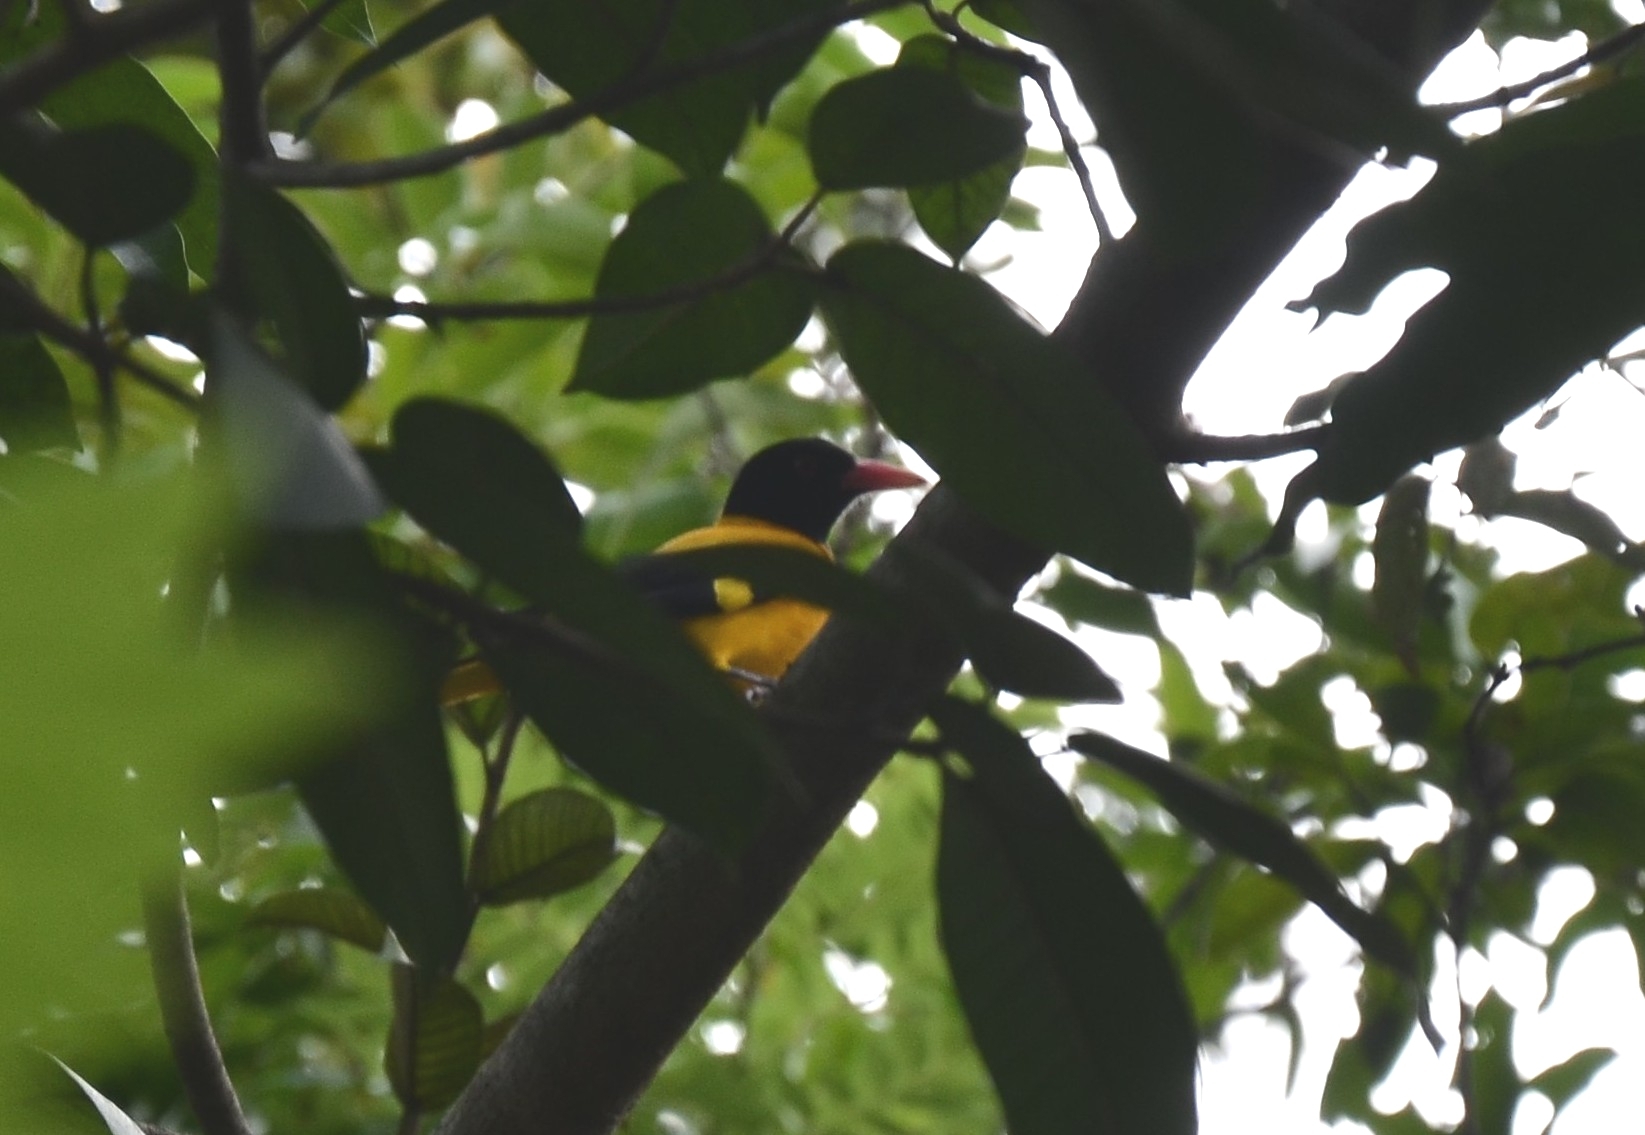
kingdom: Animalia
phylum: Chordata
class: Aves
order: Passeriformes
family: Oriolidae
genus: Oriolus
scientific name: Oriolus xanthornus
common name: Black-hooded oriole
